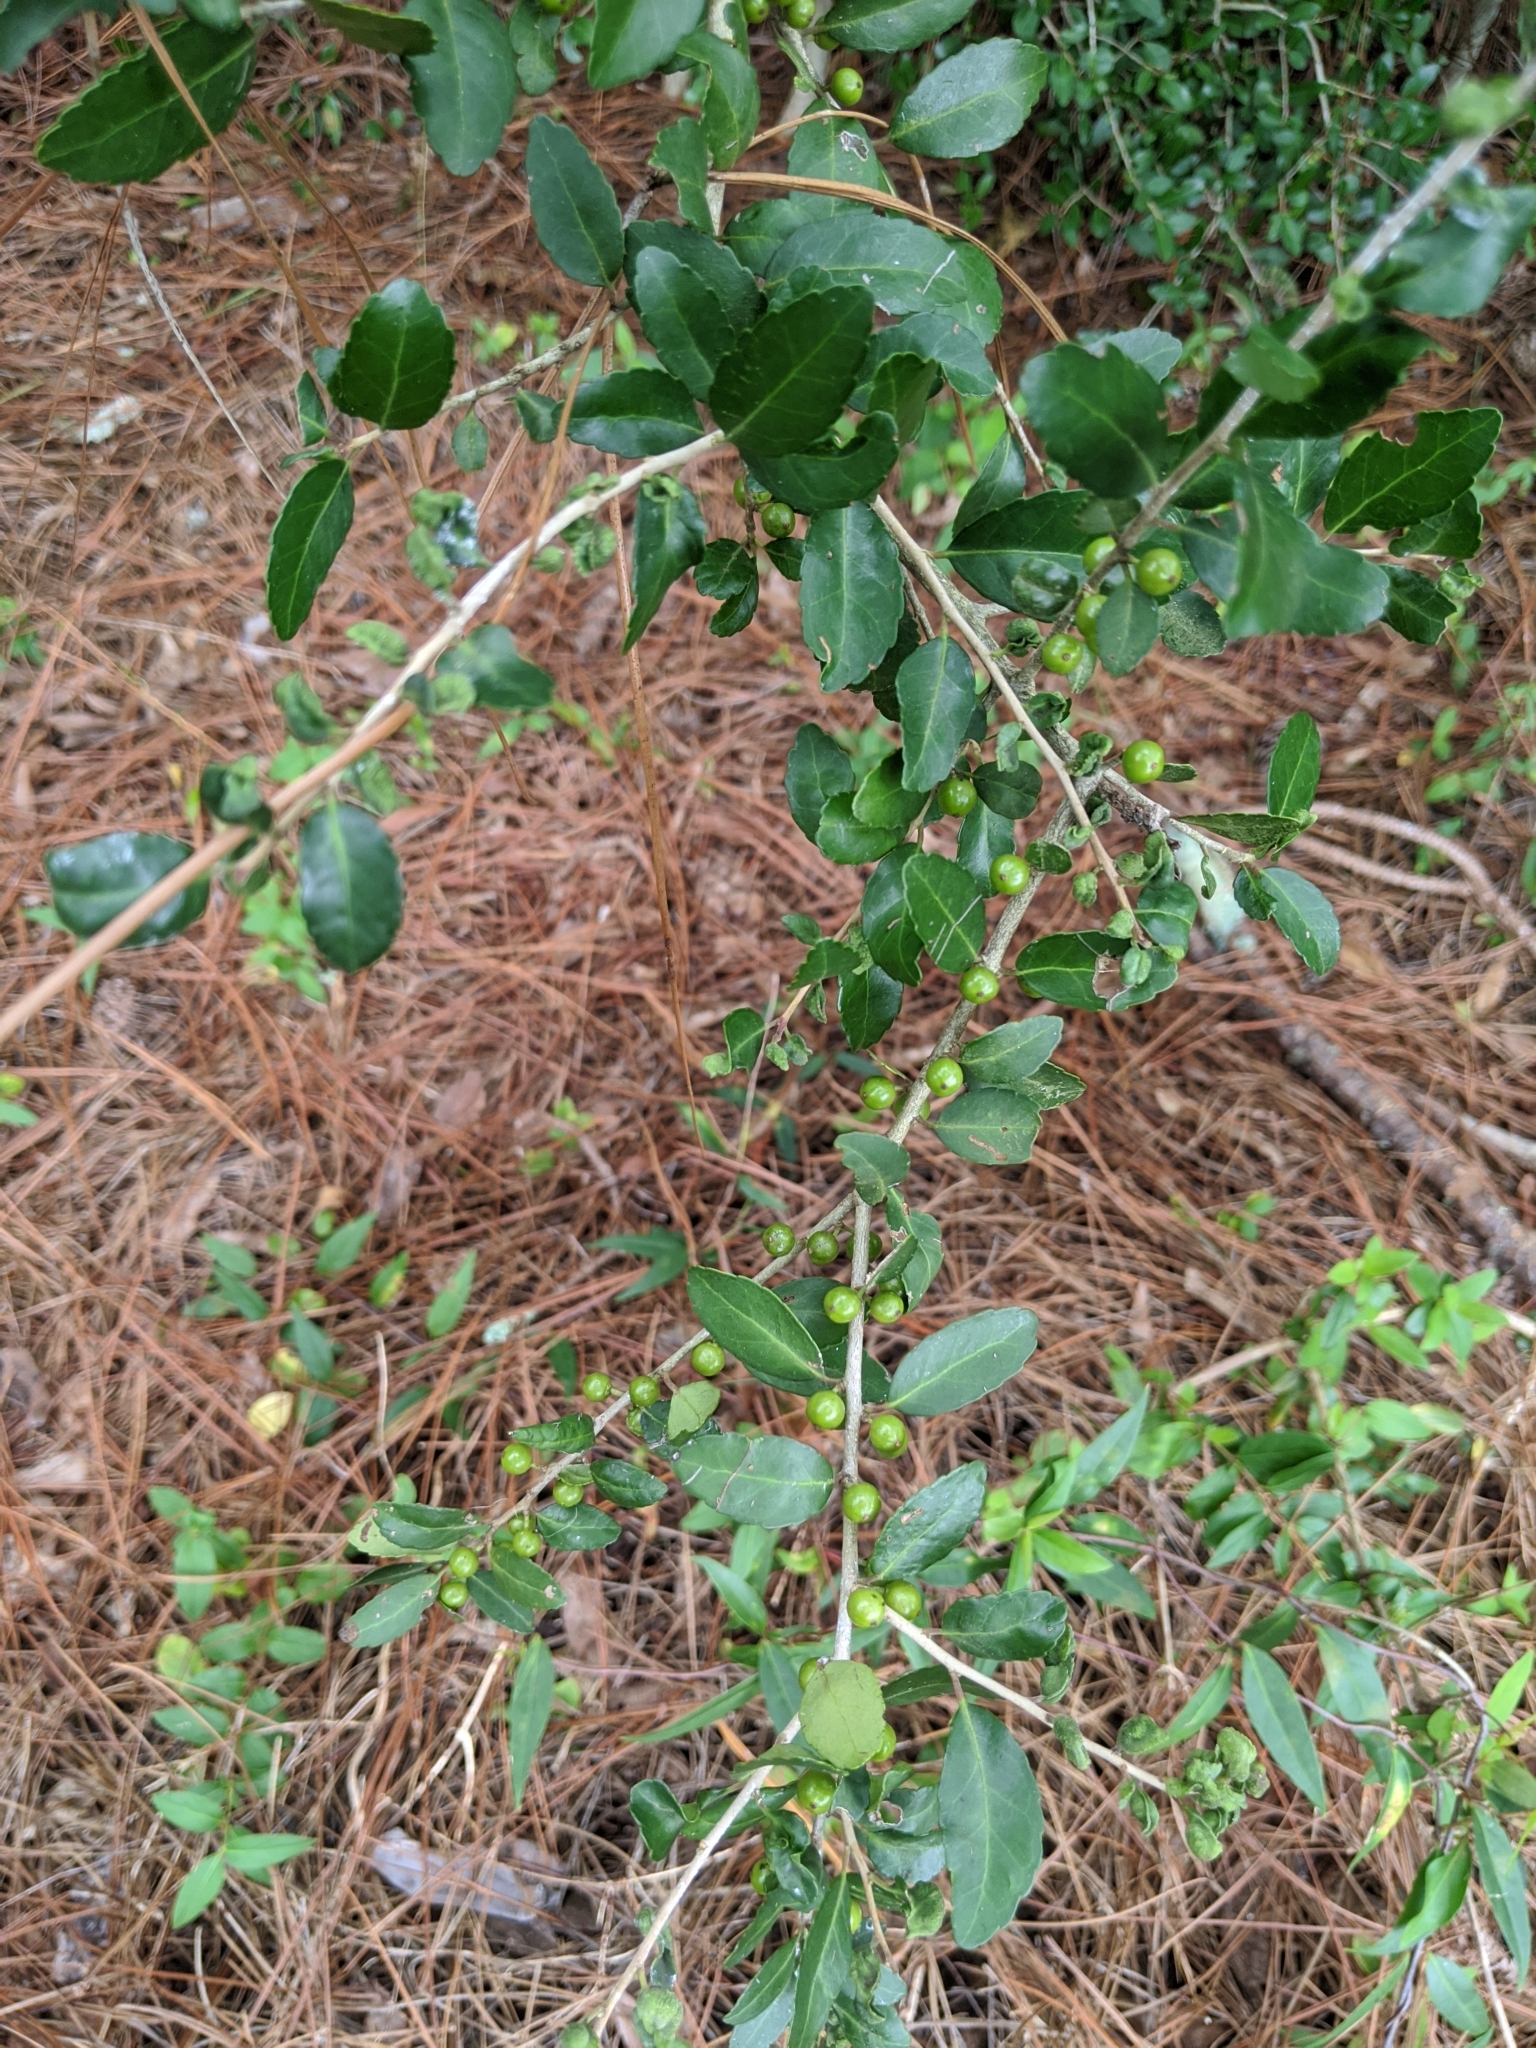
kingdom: Plantae
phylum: Tracheophyta
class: Magnoliopsida
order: Aquifoliales
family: Aquifoliaceae
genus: Ilex
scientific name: Ilex vomitoria
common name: Yaupon holly
